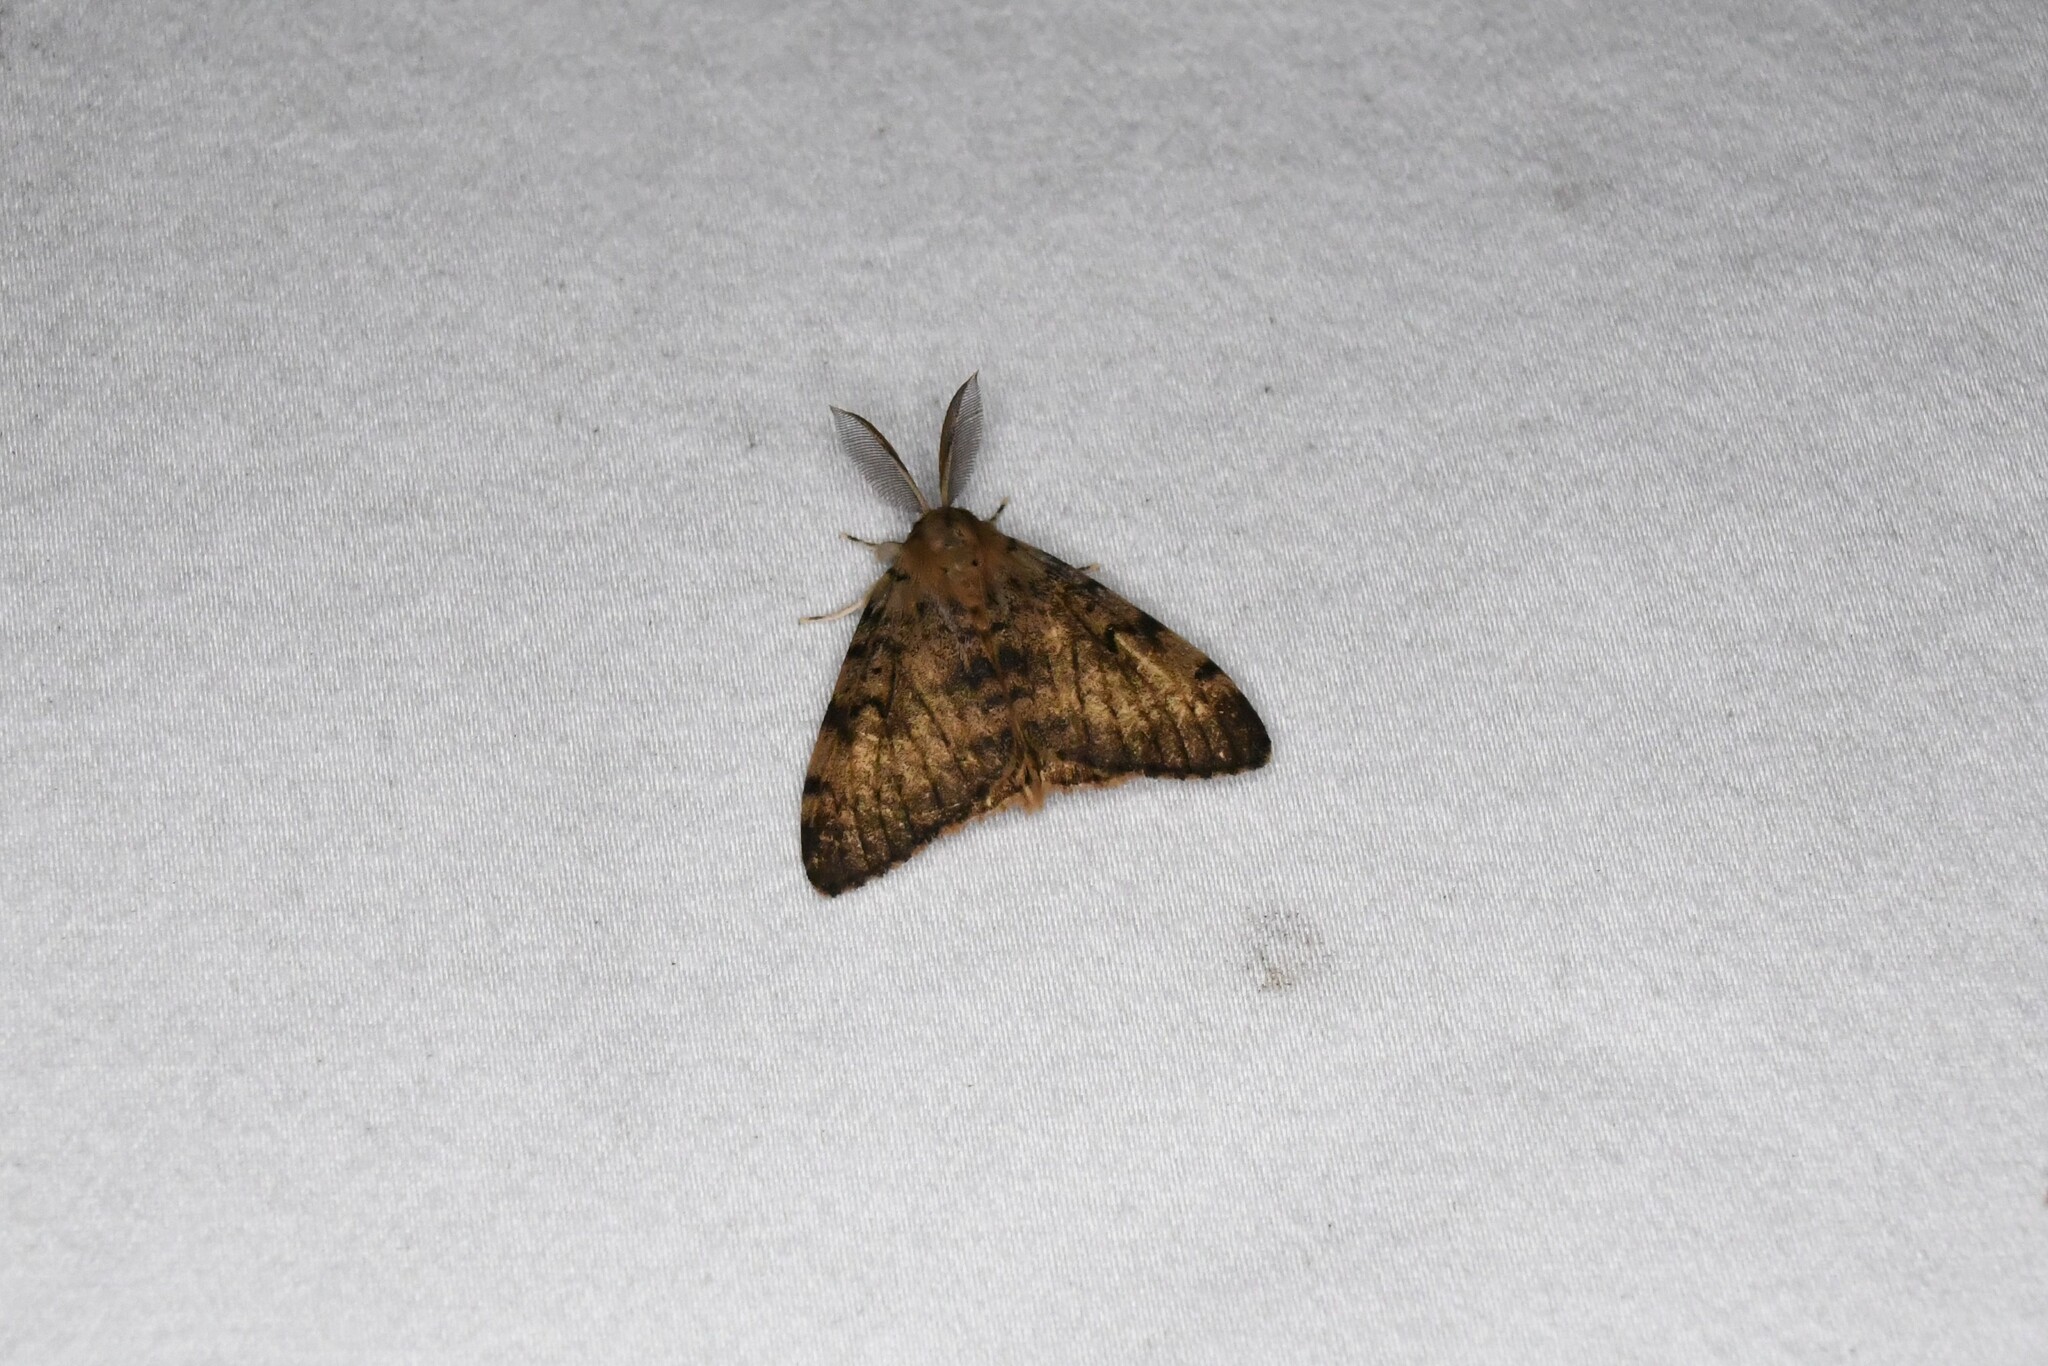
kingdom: Animalia
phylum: Arthropoda
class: Insecta
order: Lepidoptera
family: Erebidae
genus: Lymantria
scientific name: Lymantria dispar
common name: Gypsy moth
